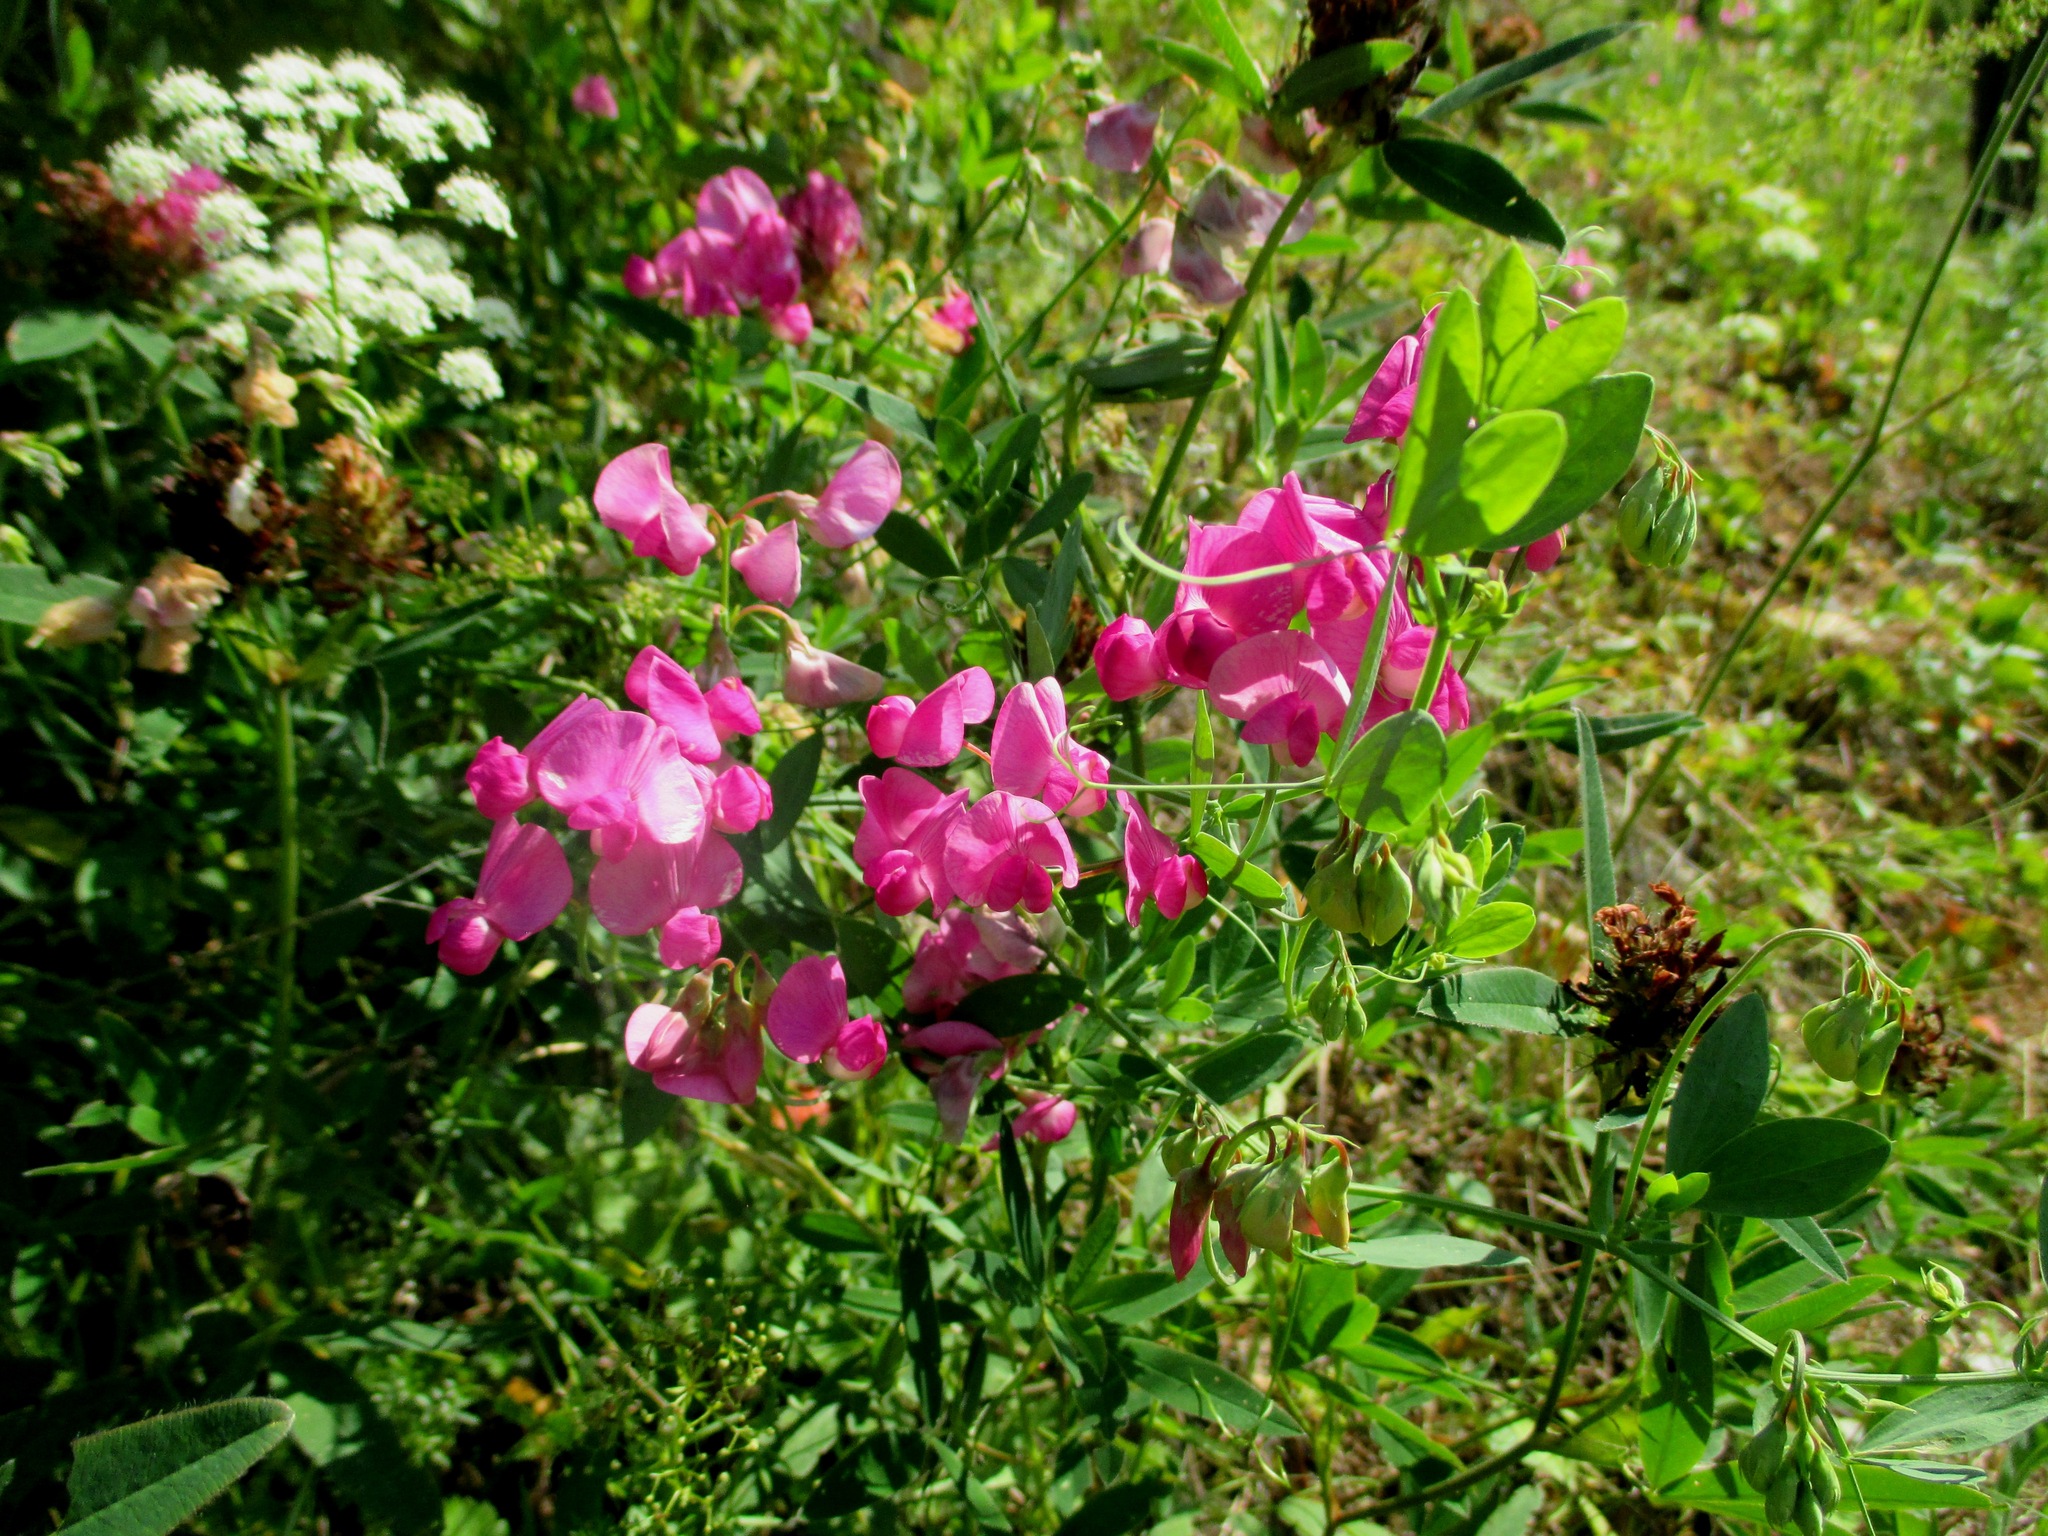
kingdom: Plantae
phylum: Tracheophyta
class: Magnoliopsida
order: Fabales
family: Fabaceae
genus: Lathyrus
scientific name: Lathyrus tuberosus
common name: Tuberous pea
